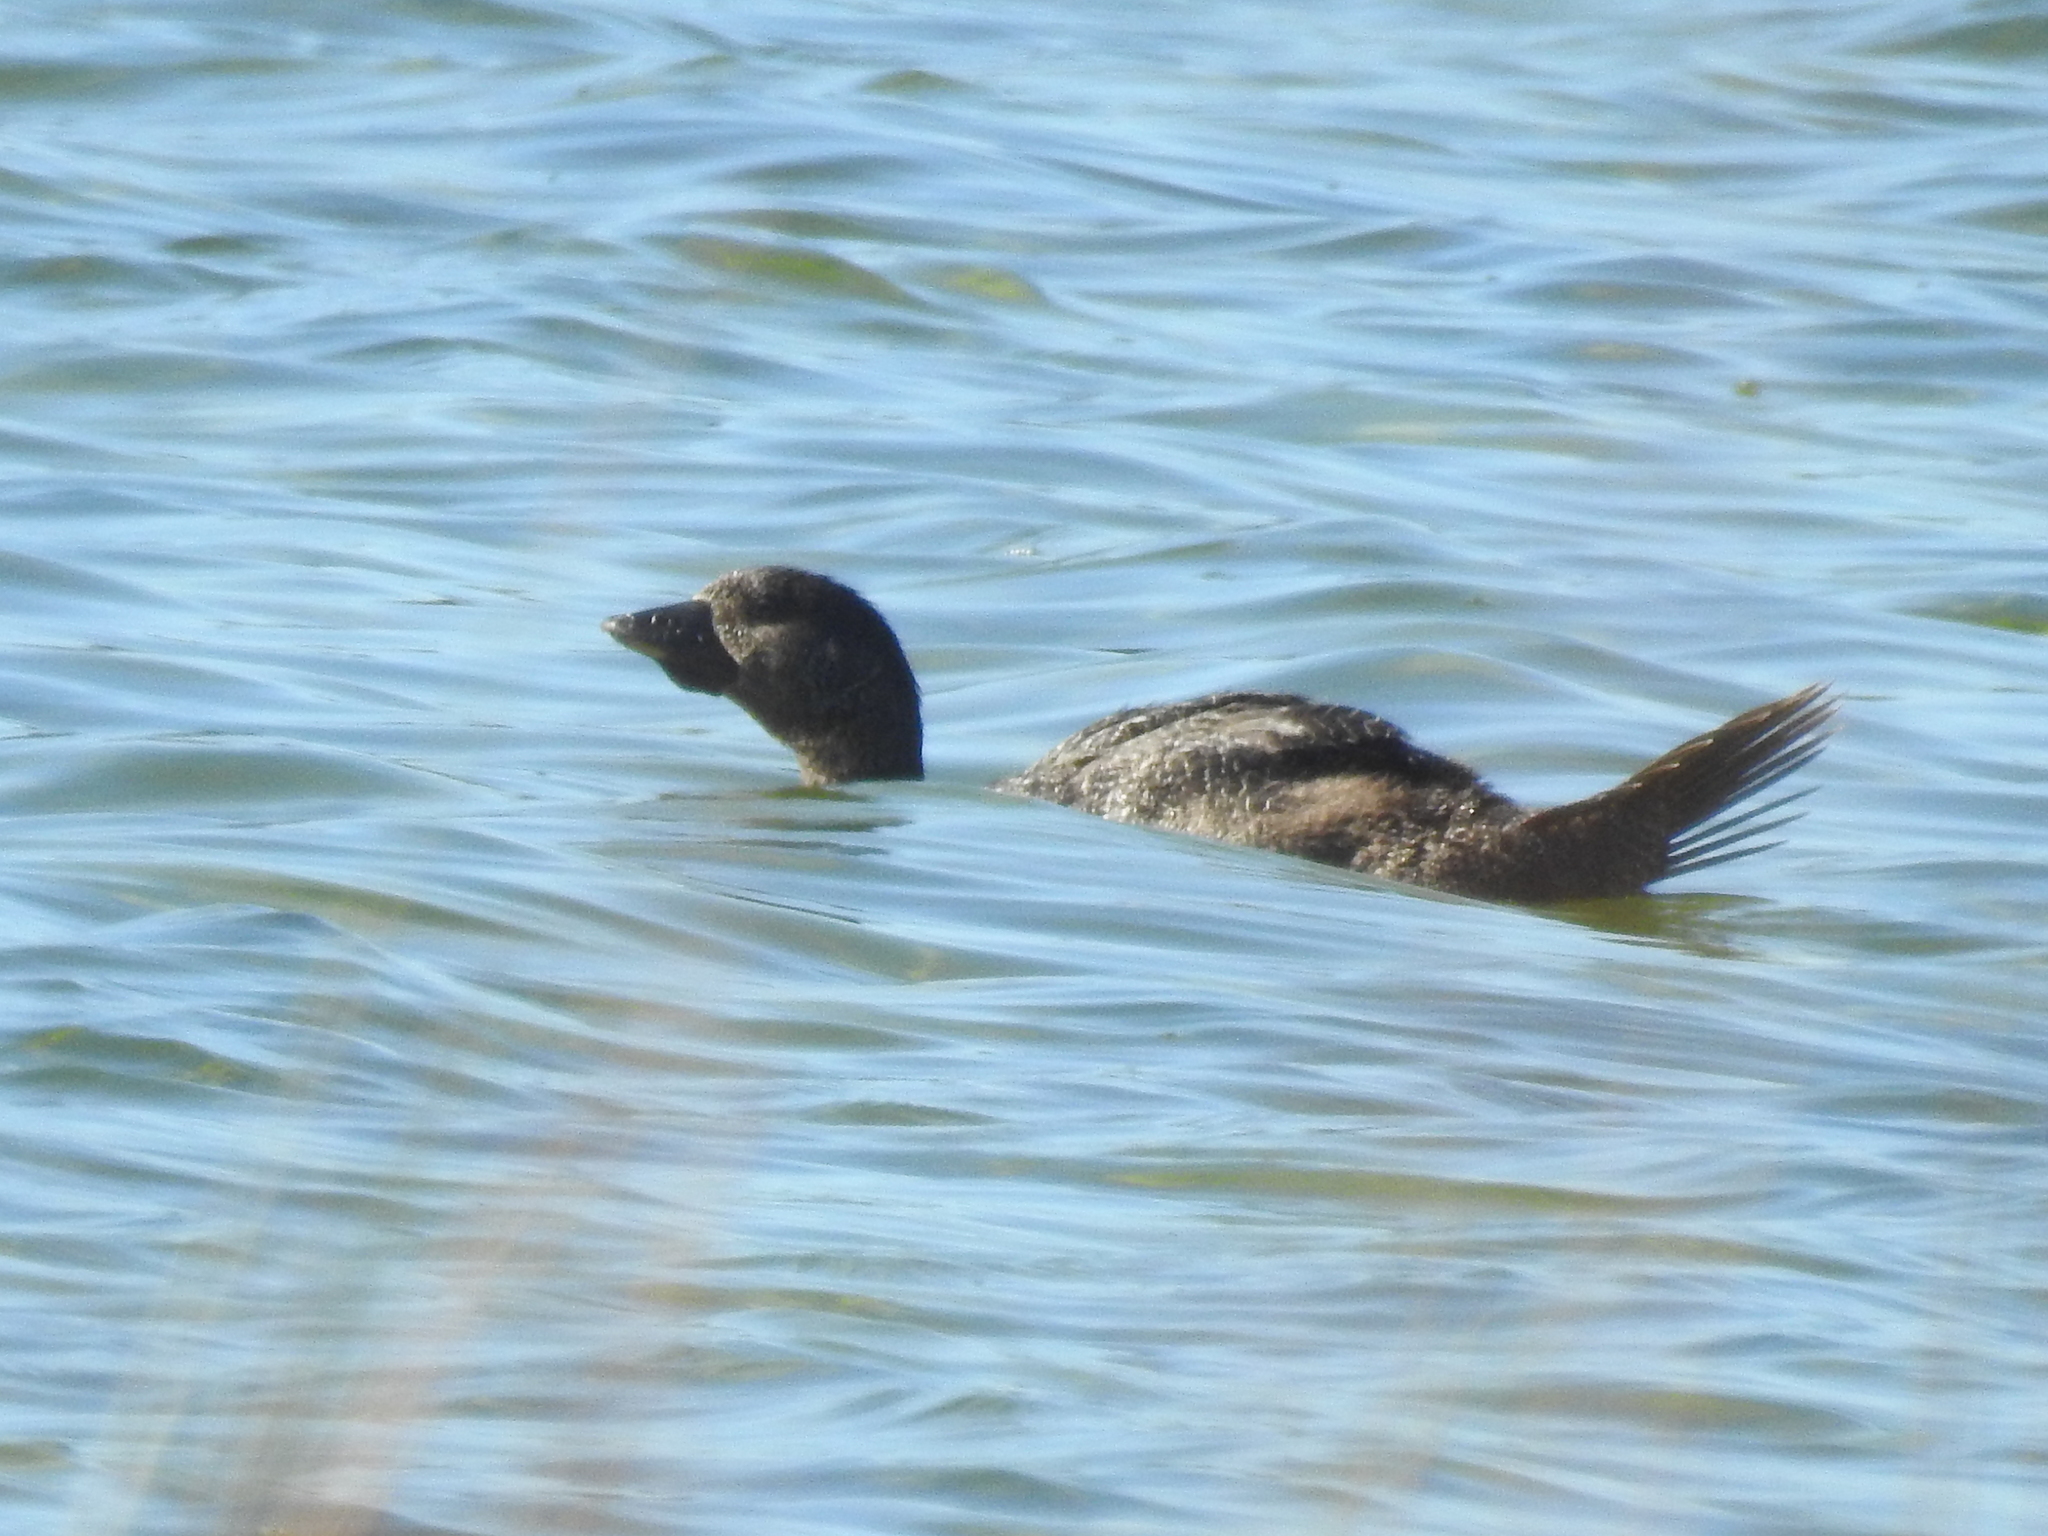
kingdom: Animalia
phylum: Chordata
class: Aves
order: Anseriformes
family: Anatidae
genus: Biziura
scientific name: Biziura lobata
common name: Musk duck
